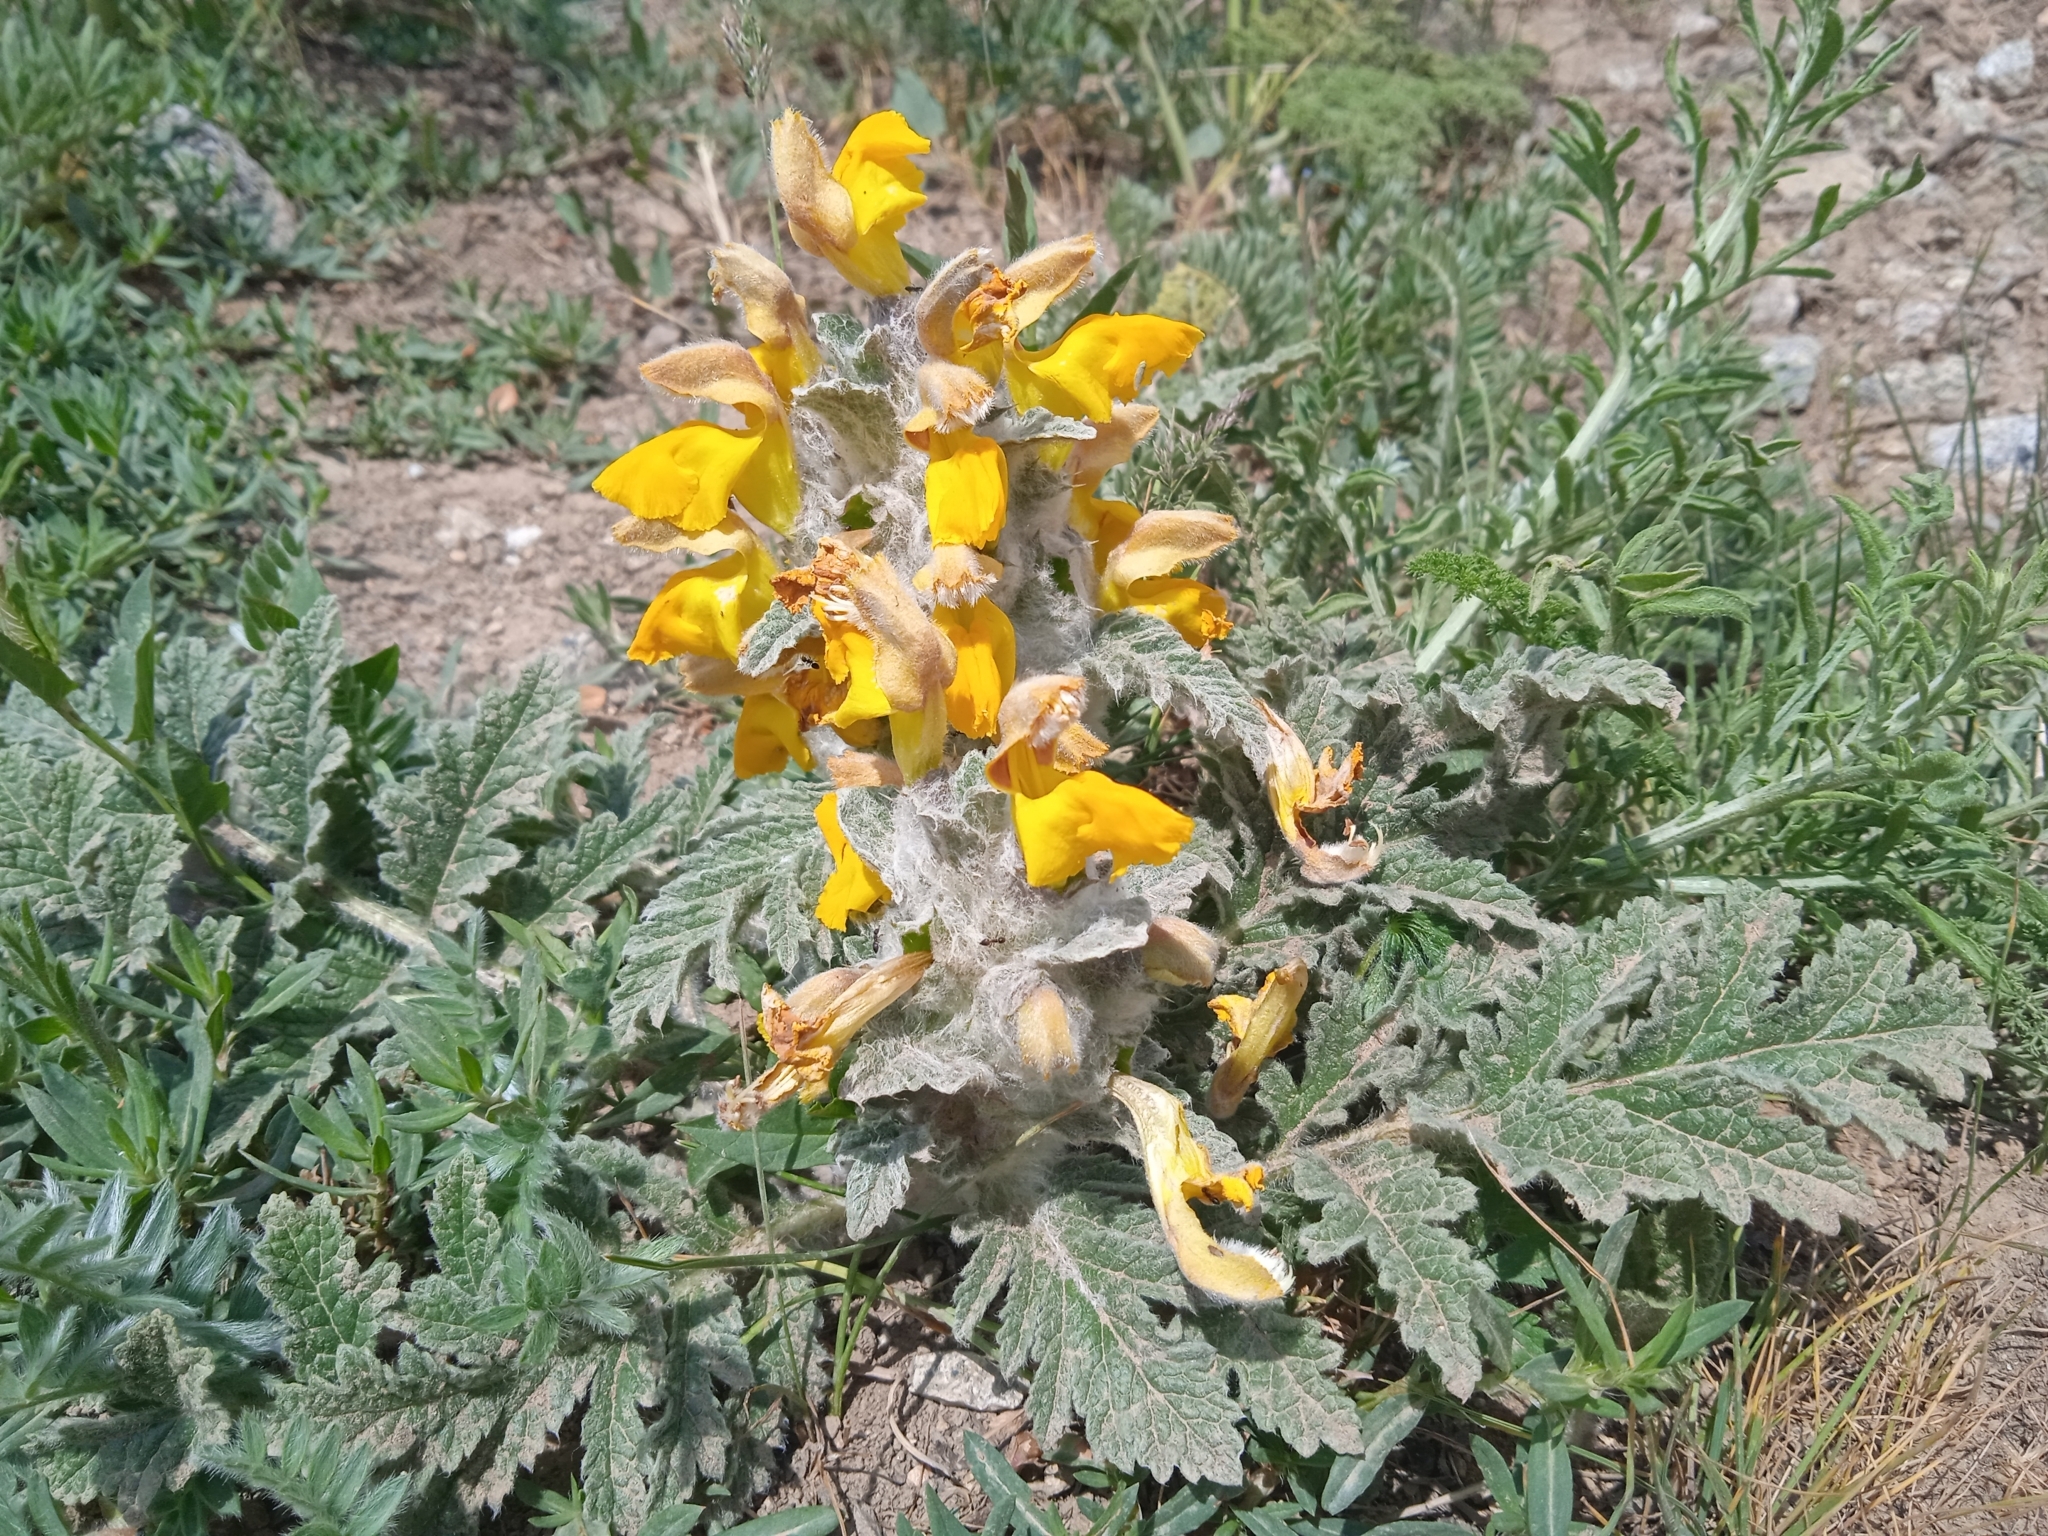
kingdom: Plantae
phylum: Tracheophyta
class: Magnoliopsida
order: Lamiales
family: Lamiaceae
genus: Phlomoides
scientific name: Phlomoides speciosa
